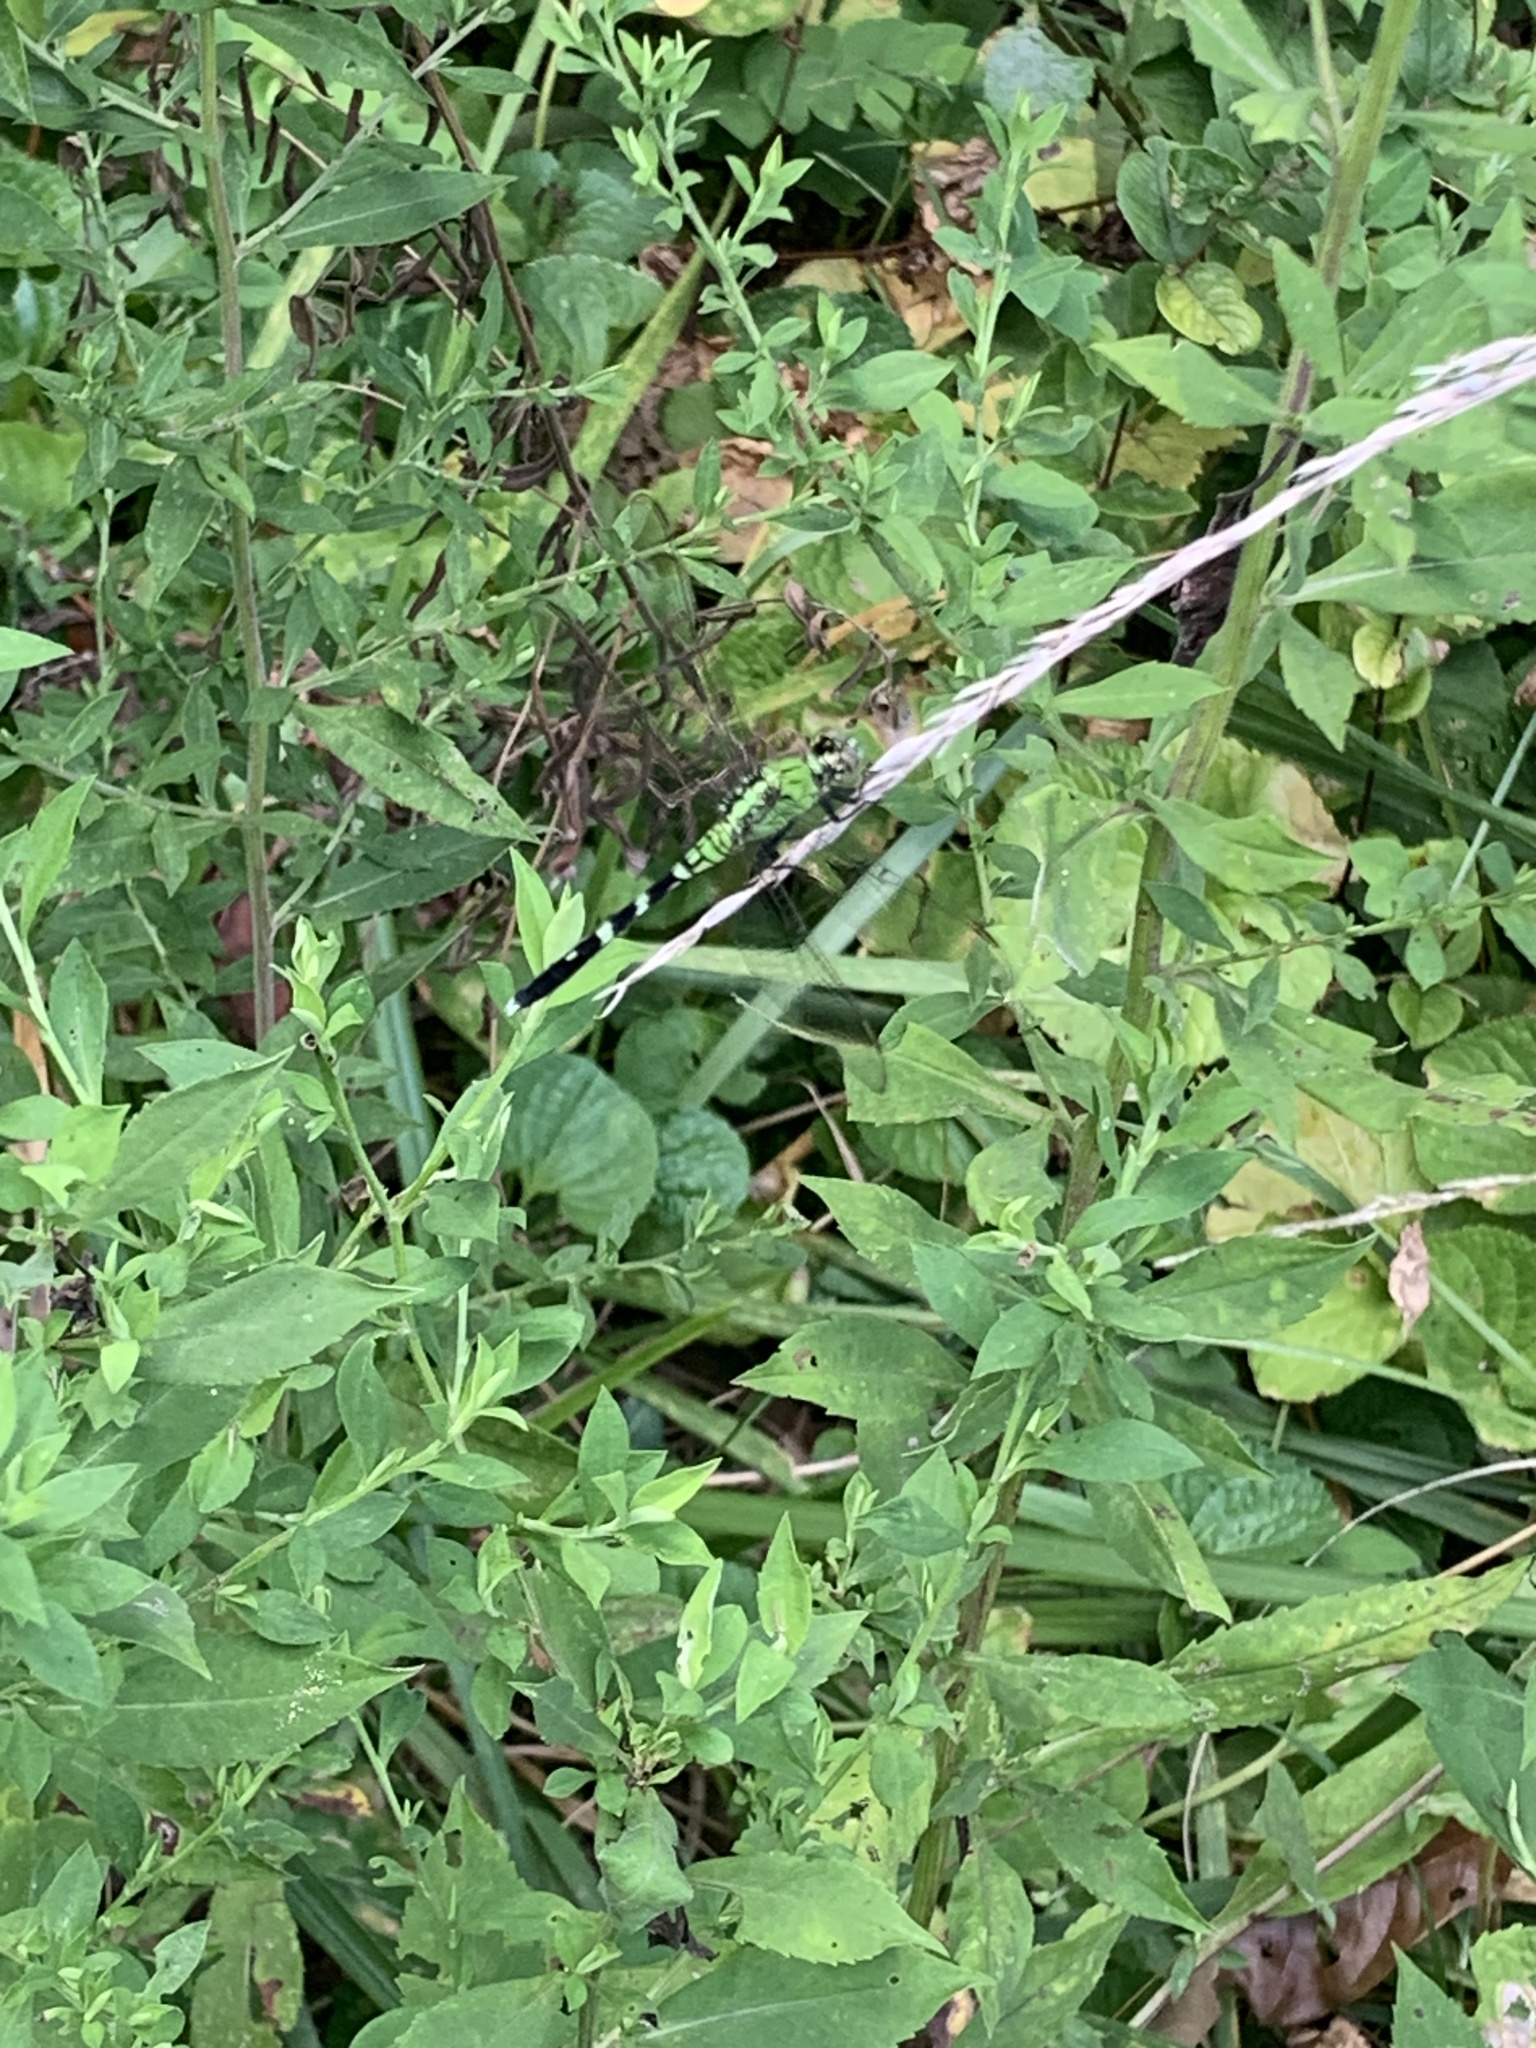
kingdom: Animalia
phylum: Arthropoda
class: Insecta
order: Odonata
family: Libellulidae
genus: Erythemis
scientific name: Erythemis simplicicollis
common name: Eastern pondhawk
